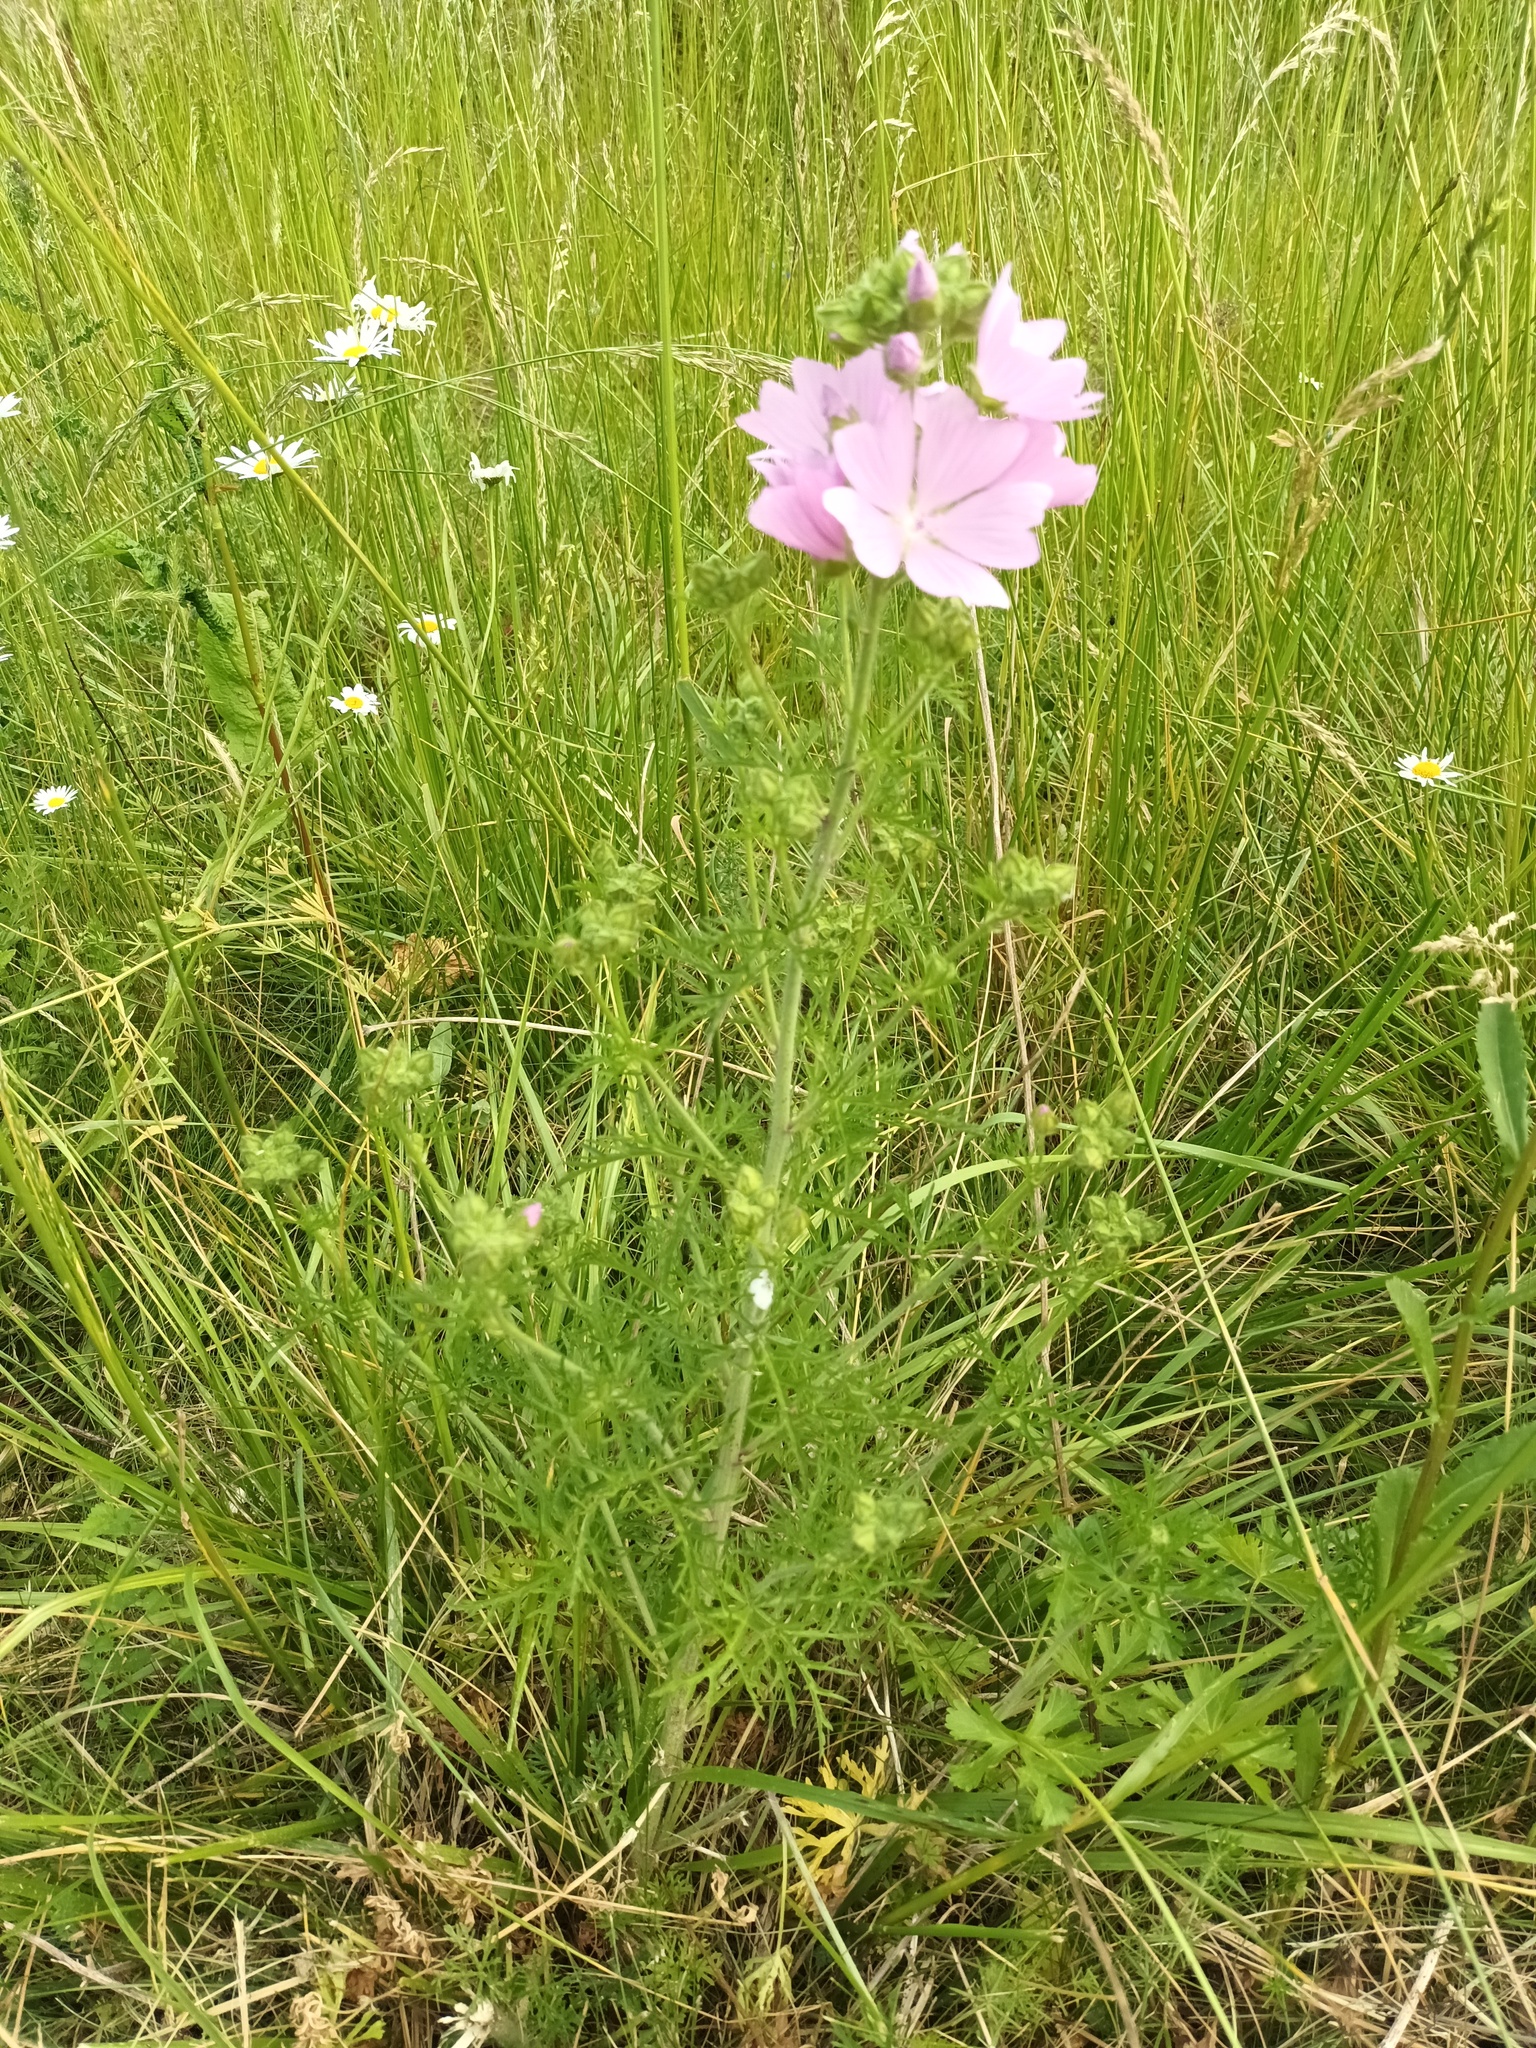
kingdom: Plantae
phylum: Tracheophyta
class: Magnoliopsida
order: Malvales
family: Malvaceae
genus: Malva
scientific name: Malva moschata
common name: Musk mallow
